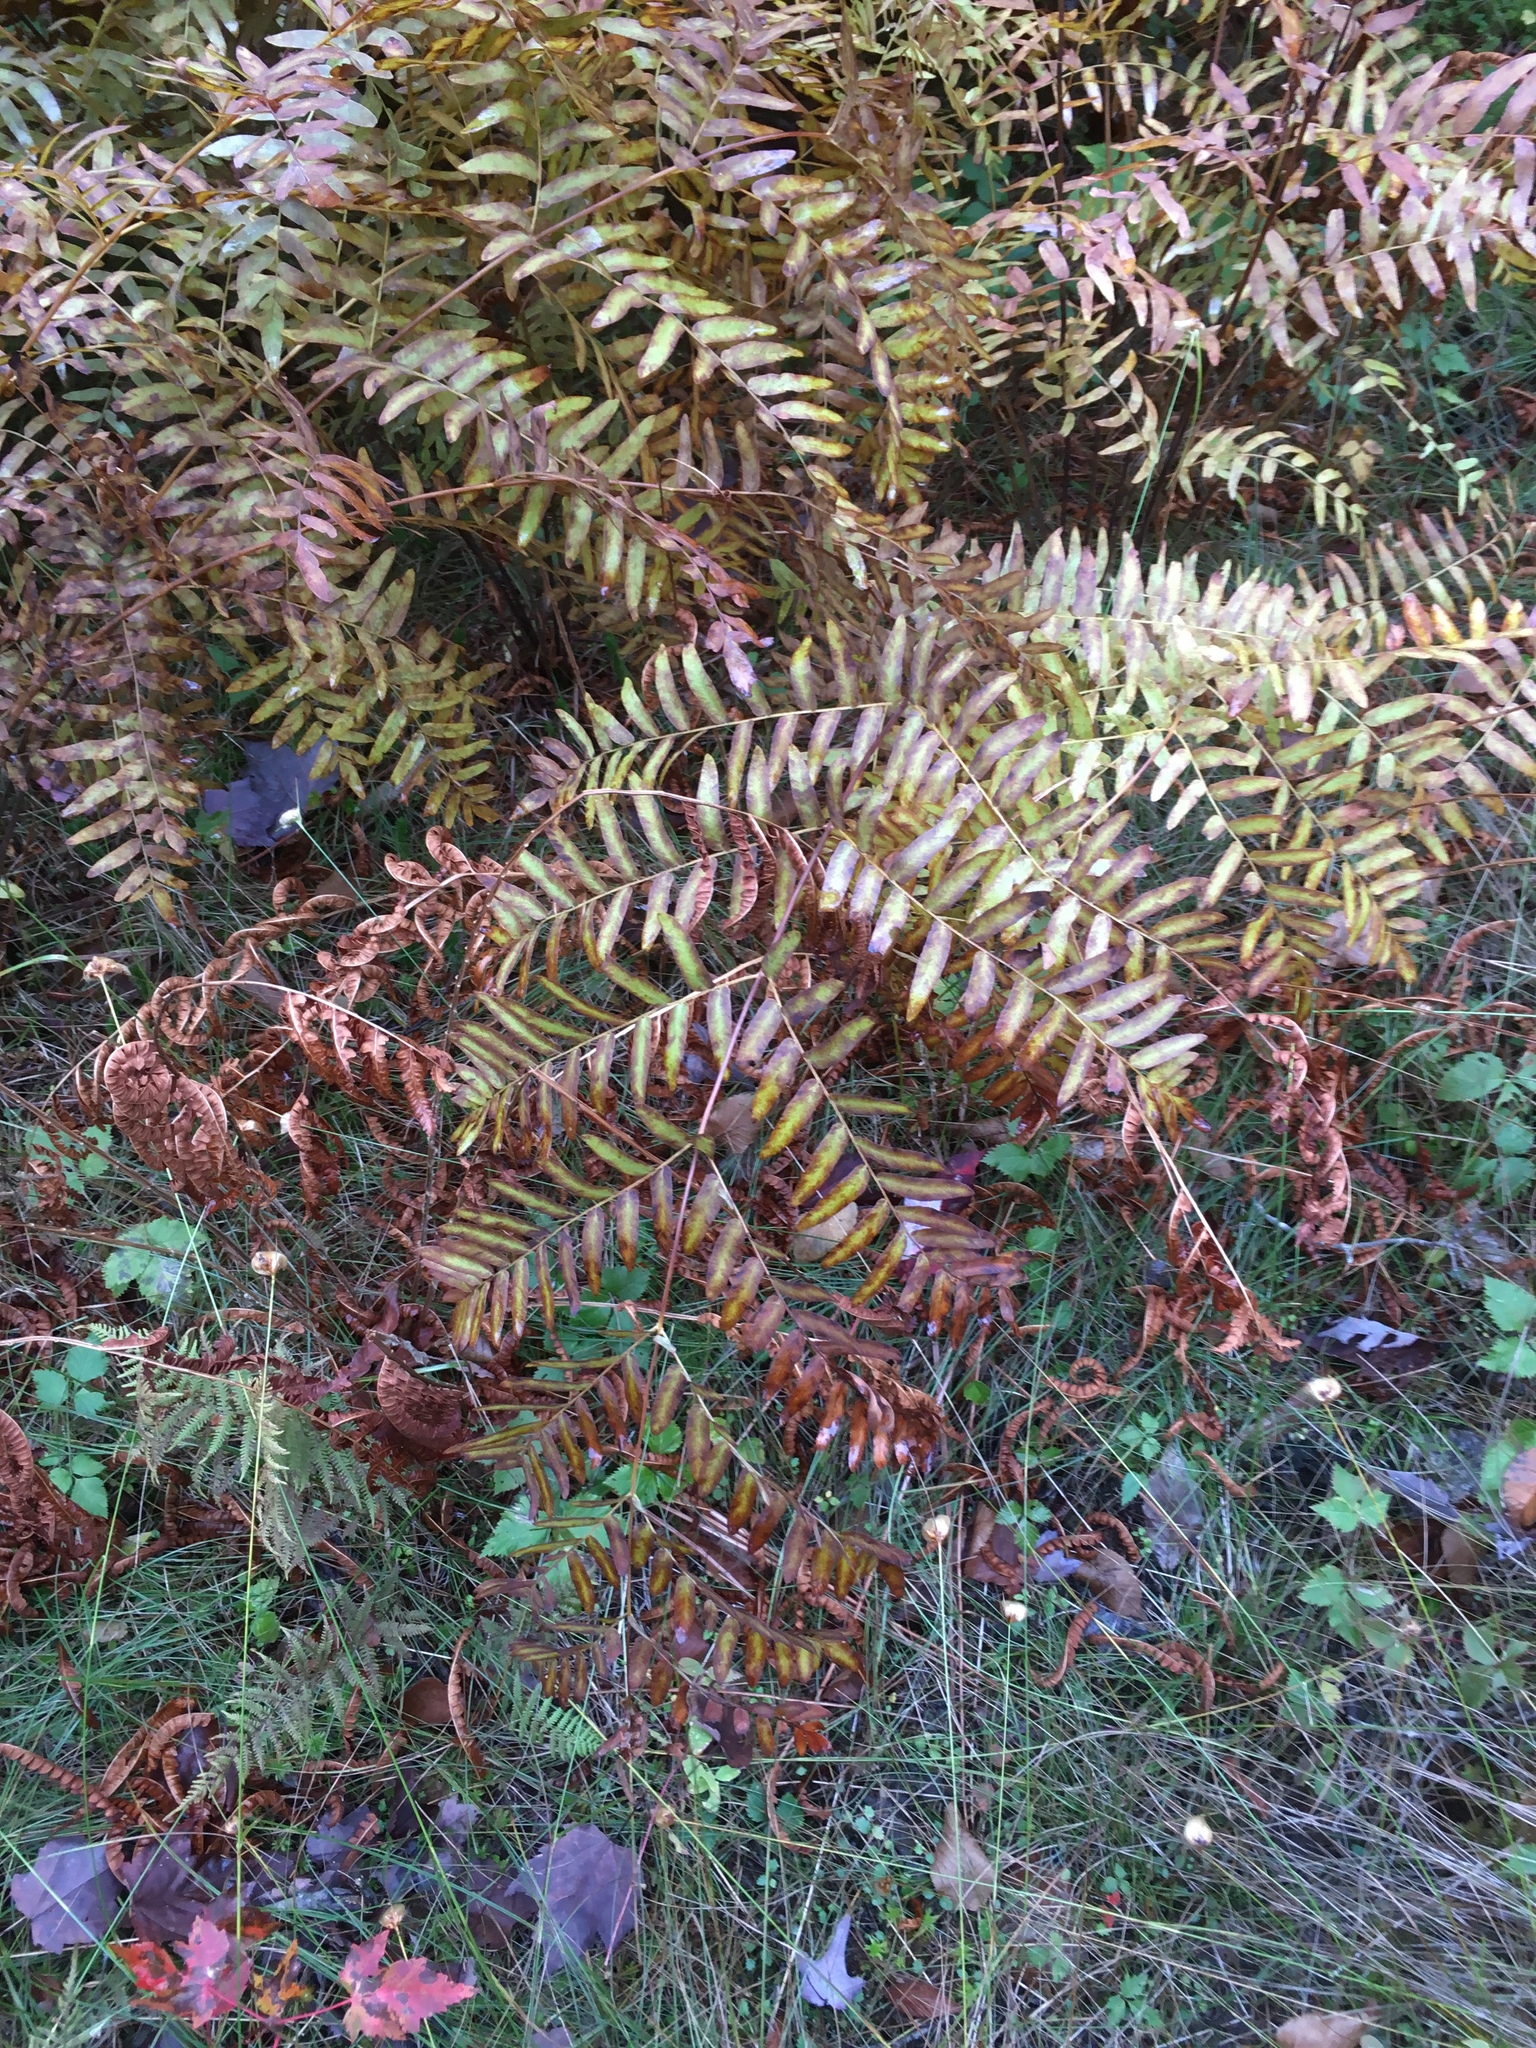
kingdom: Plantae
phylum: Tracheophyta
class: Polypodiopsida
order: Osmundales
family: Osmundaceae
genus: Osmunda
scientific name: Osmunda spectabilis
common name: American royal fern
